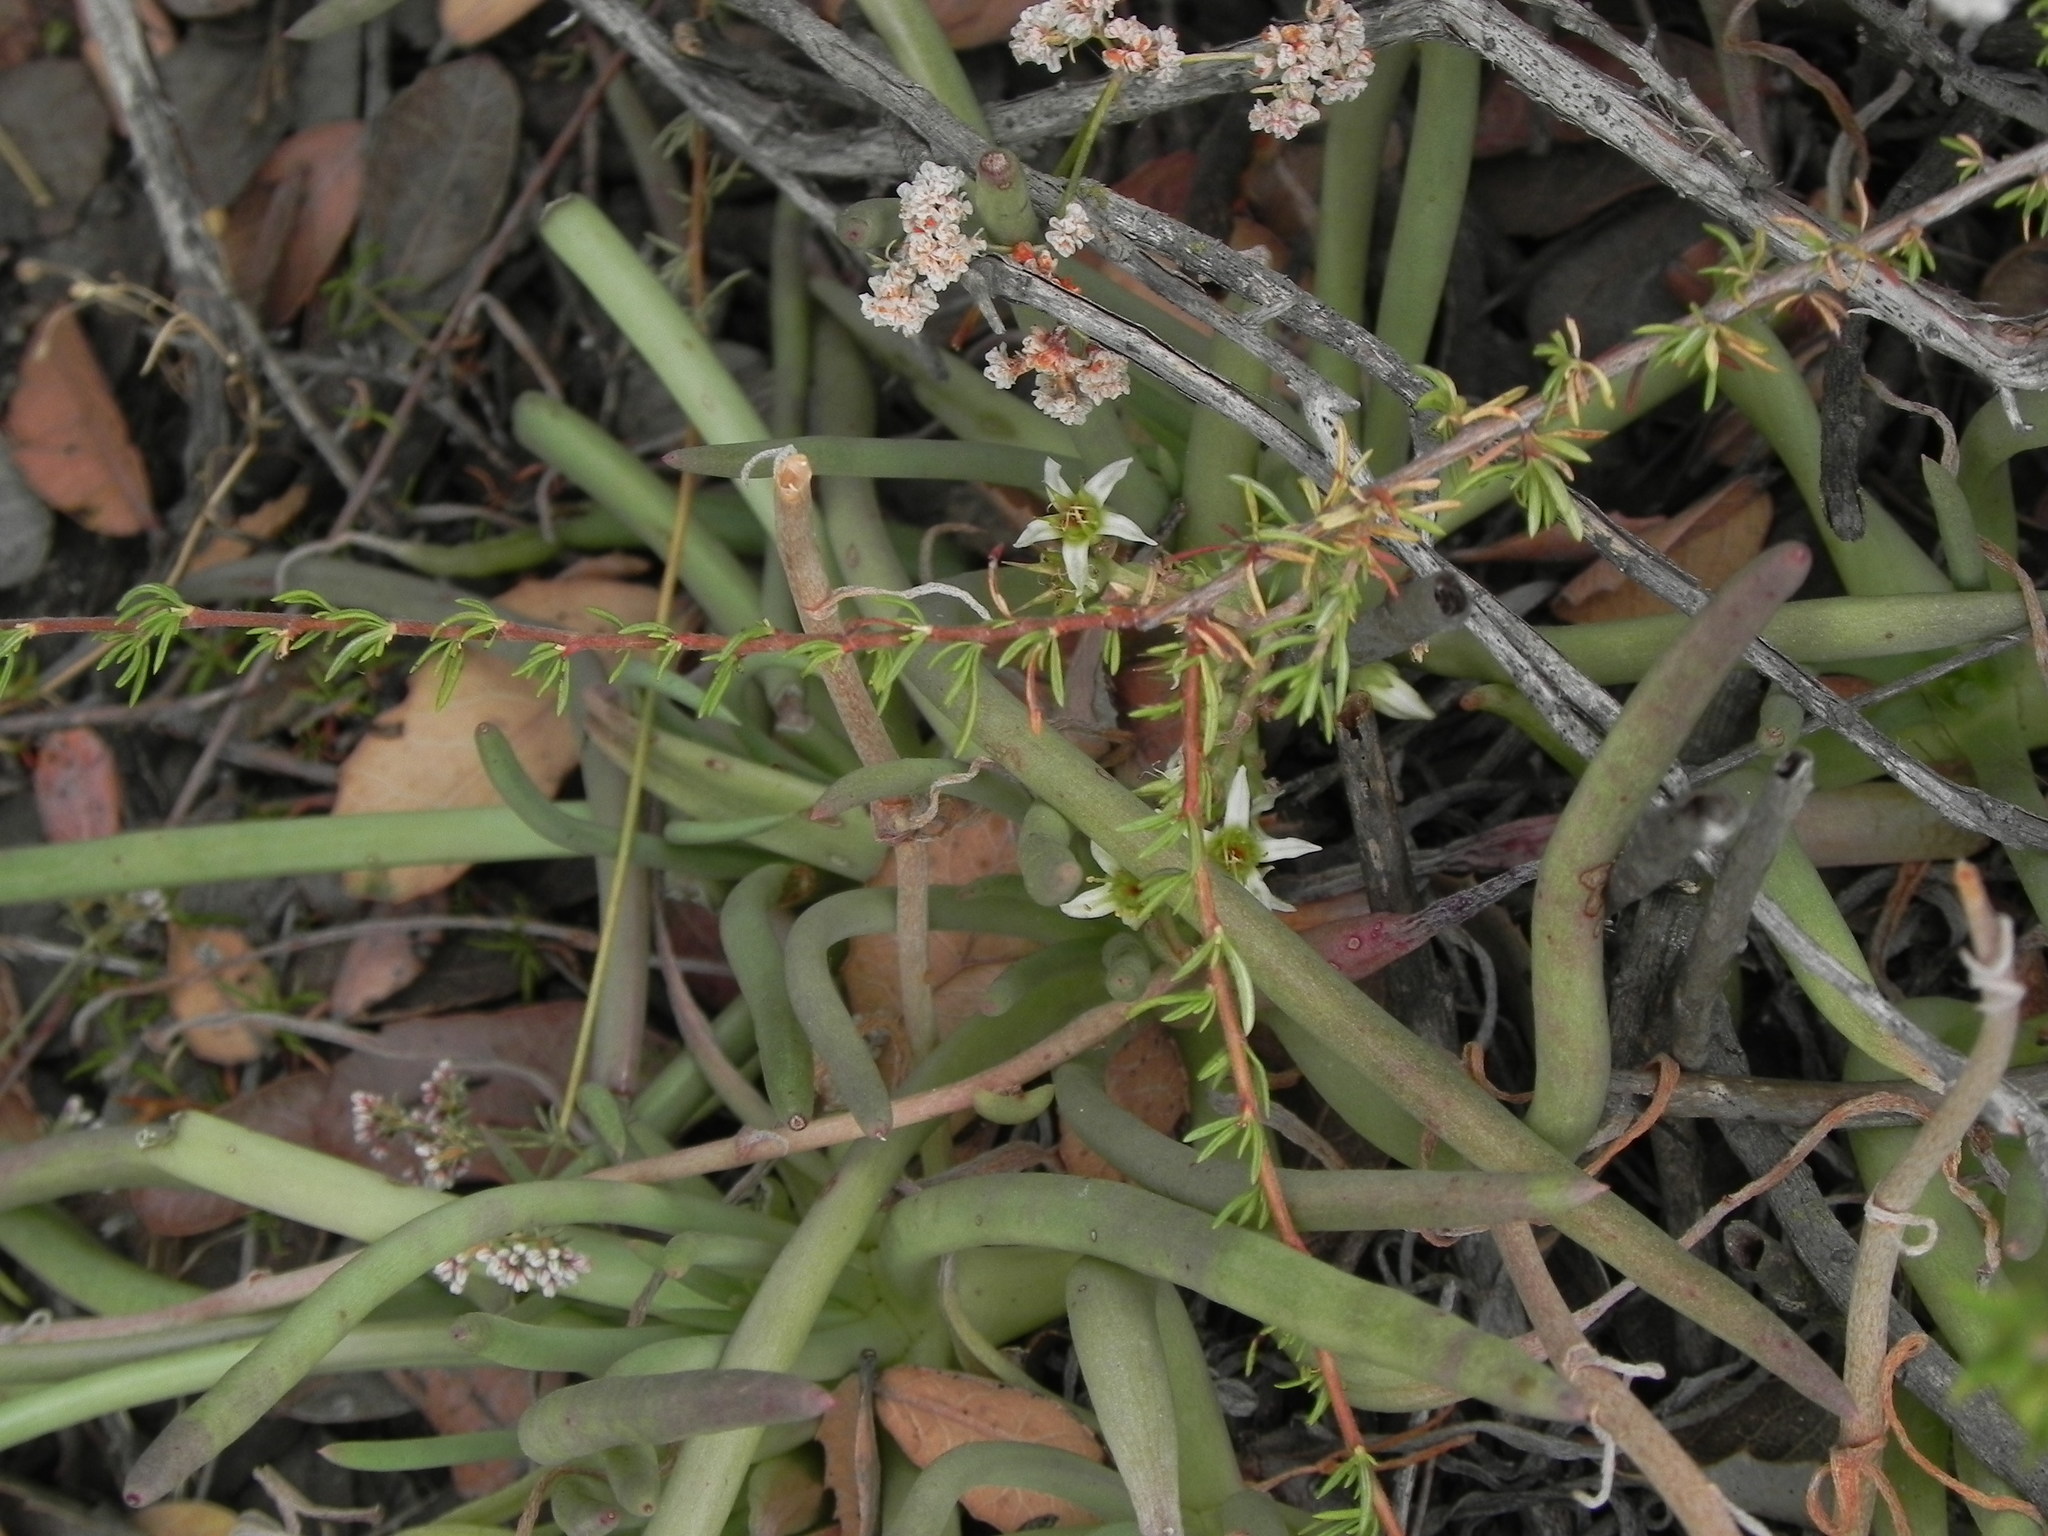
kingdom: Plantae
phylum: Tracheophyta
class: Magnoliopsida
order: Saxifragales
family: Crassulaceae
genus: Dudleya
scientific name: Dudleya edulis
